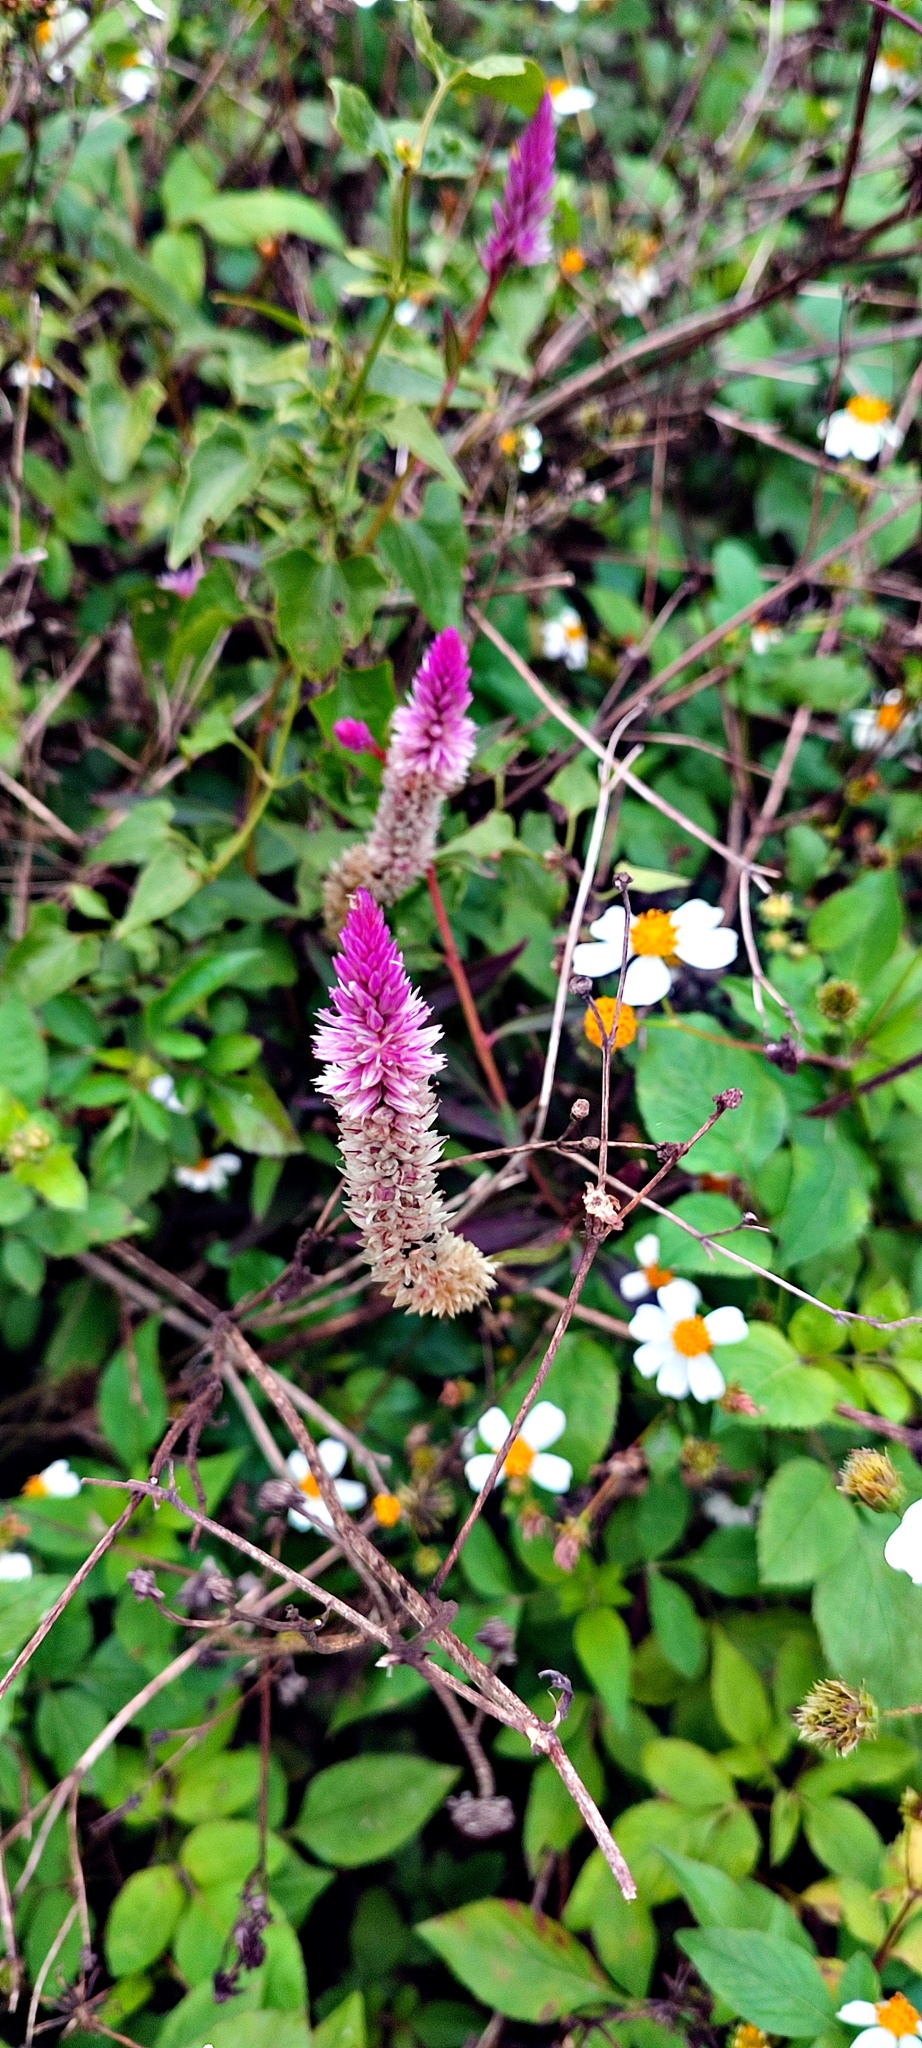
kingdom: Plantae
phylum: Tracheophyta
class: Magnoliopsida
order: Caryophyllales
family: Amaranthaceae
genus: Celosia
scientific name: Celosia argentea
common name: Feather cockscomb
